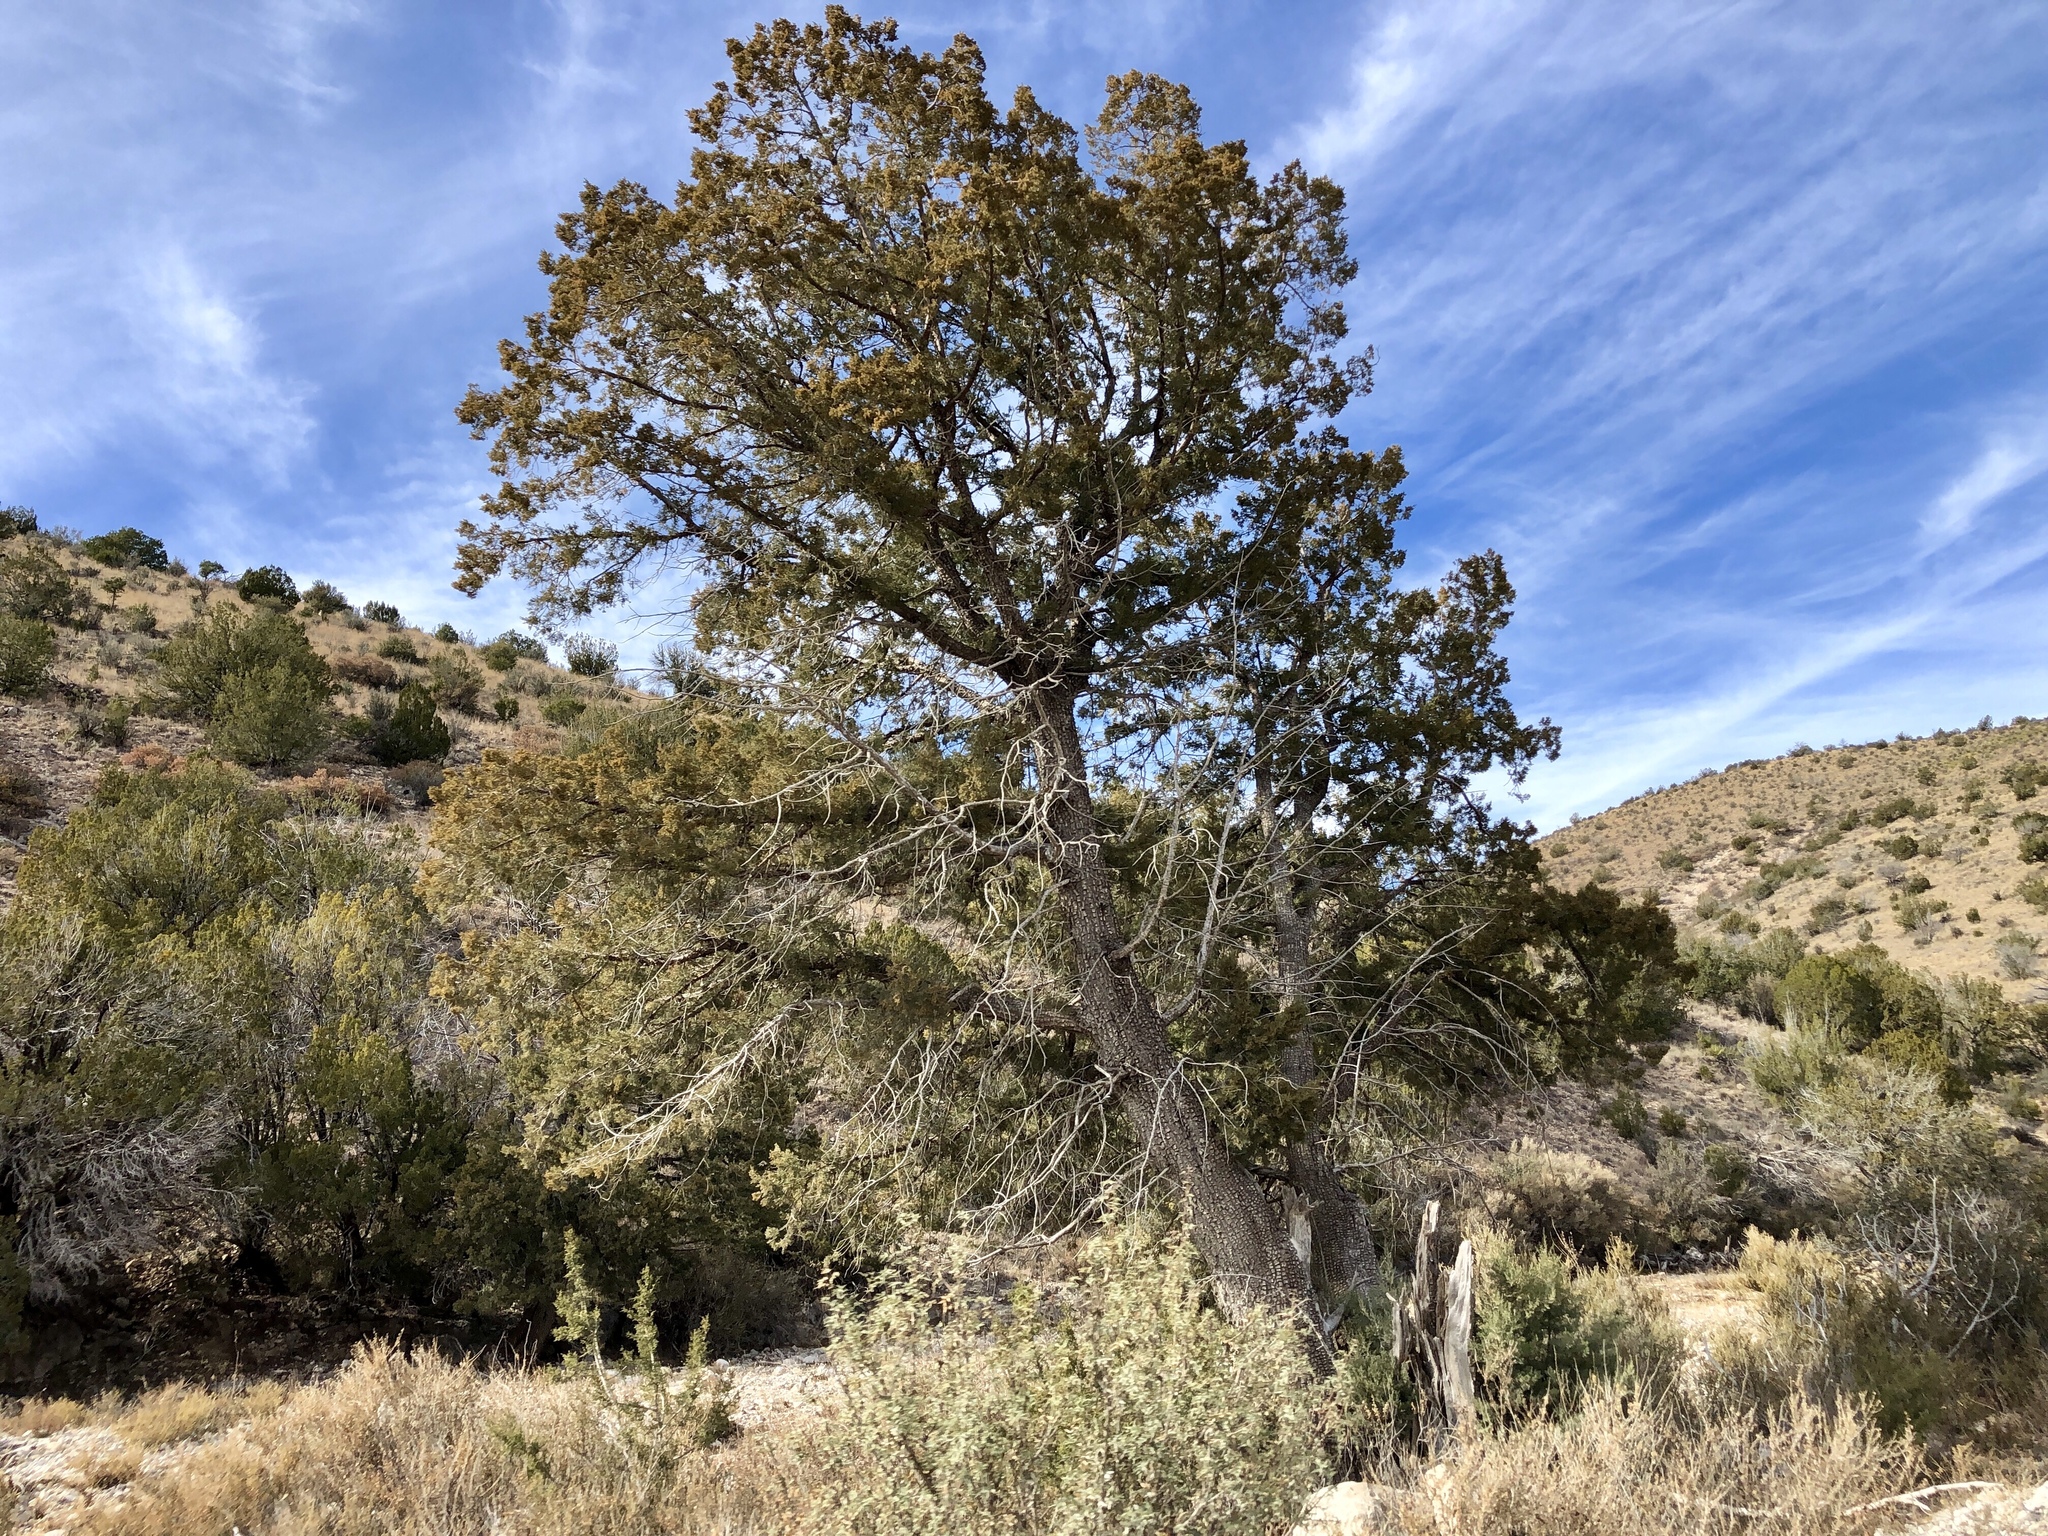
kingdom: Plantae
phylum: Tracheophyta
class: Pinopsida
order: Pinales
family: Cupressaceae
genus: Juniperus
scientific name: Juniperus deppeana
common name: Alligator juniper
